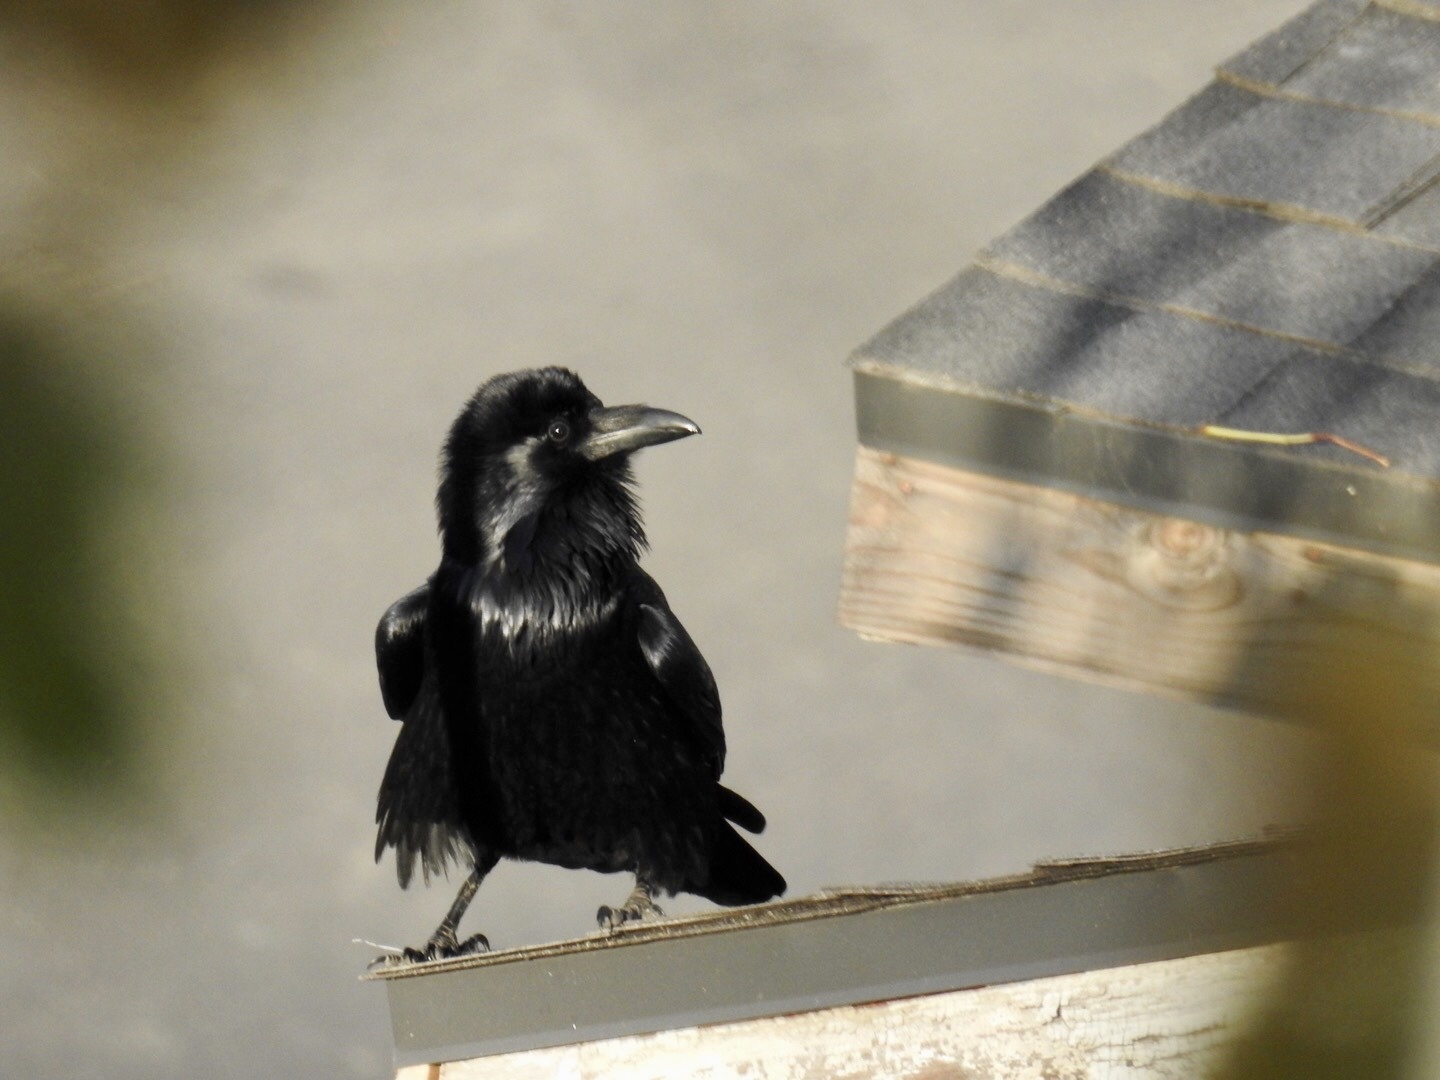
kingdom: Animalia
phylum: Chordata
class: Aves
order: Passeriformes
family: Corvidae
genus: Corvus
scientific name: Corvus corax
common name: Common raven
